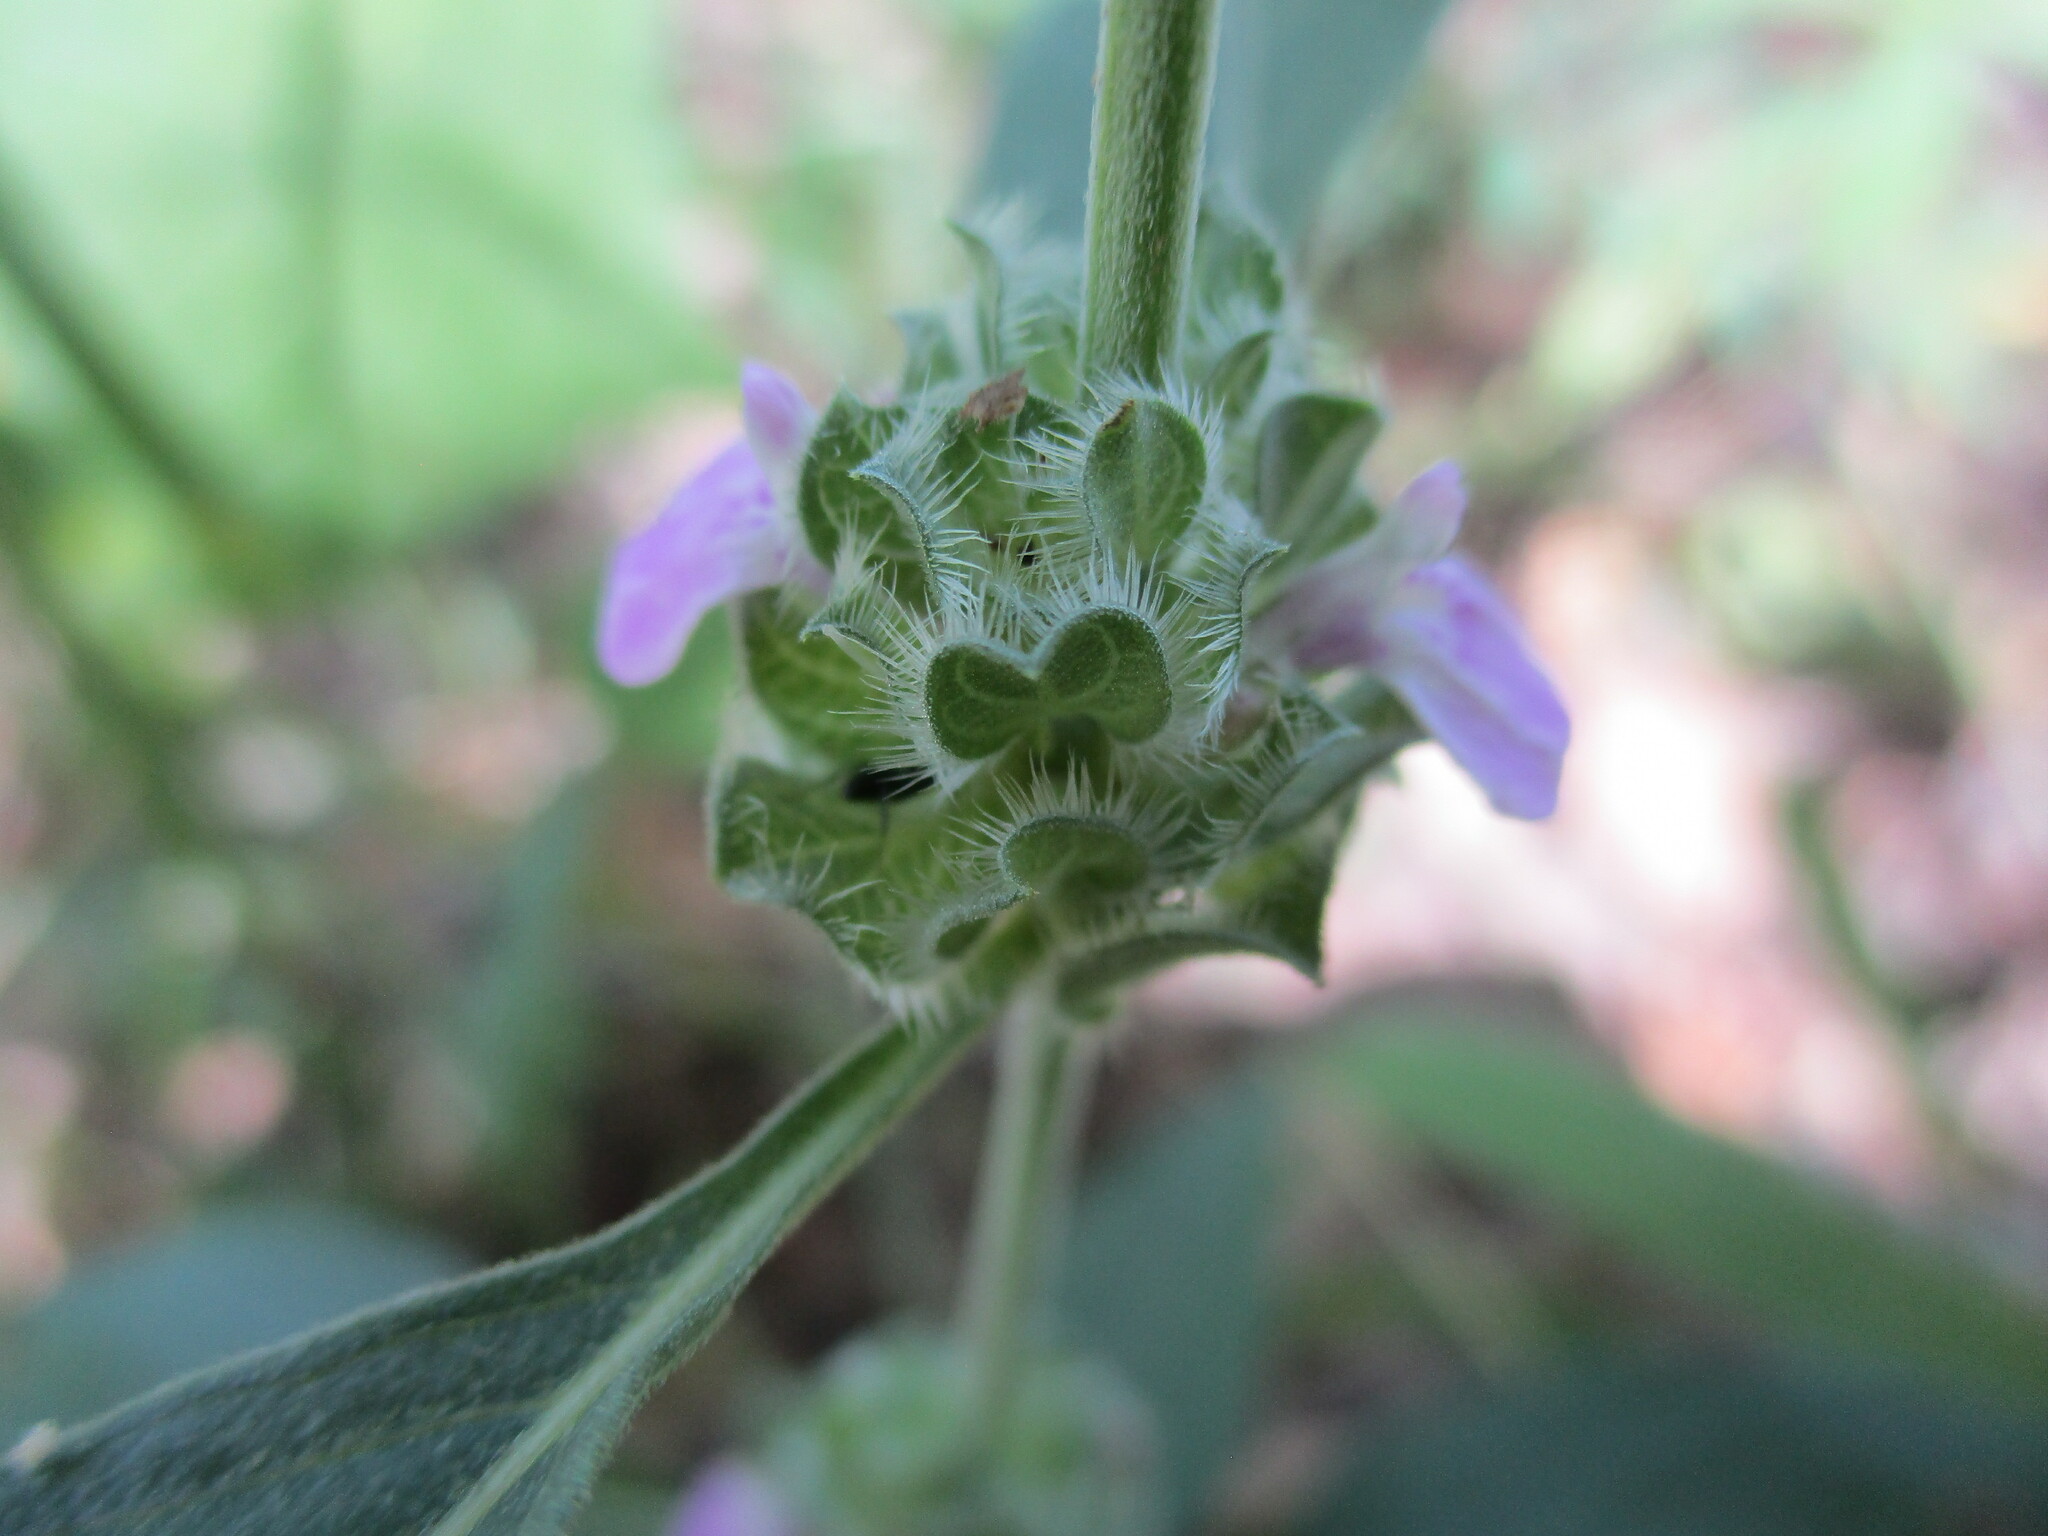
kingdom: Plantae
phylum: Tracheophyta
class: Magnoliopsida
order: Lamiales
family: Acanthaceae
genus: Monechma
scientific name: Monechma
